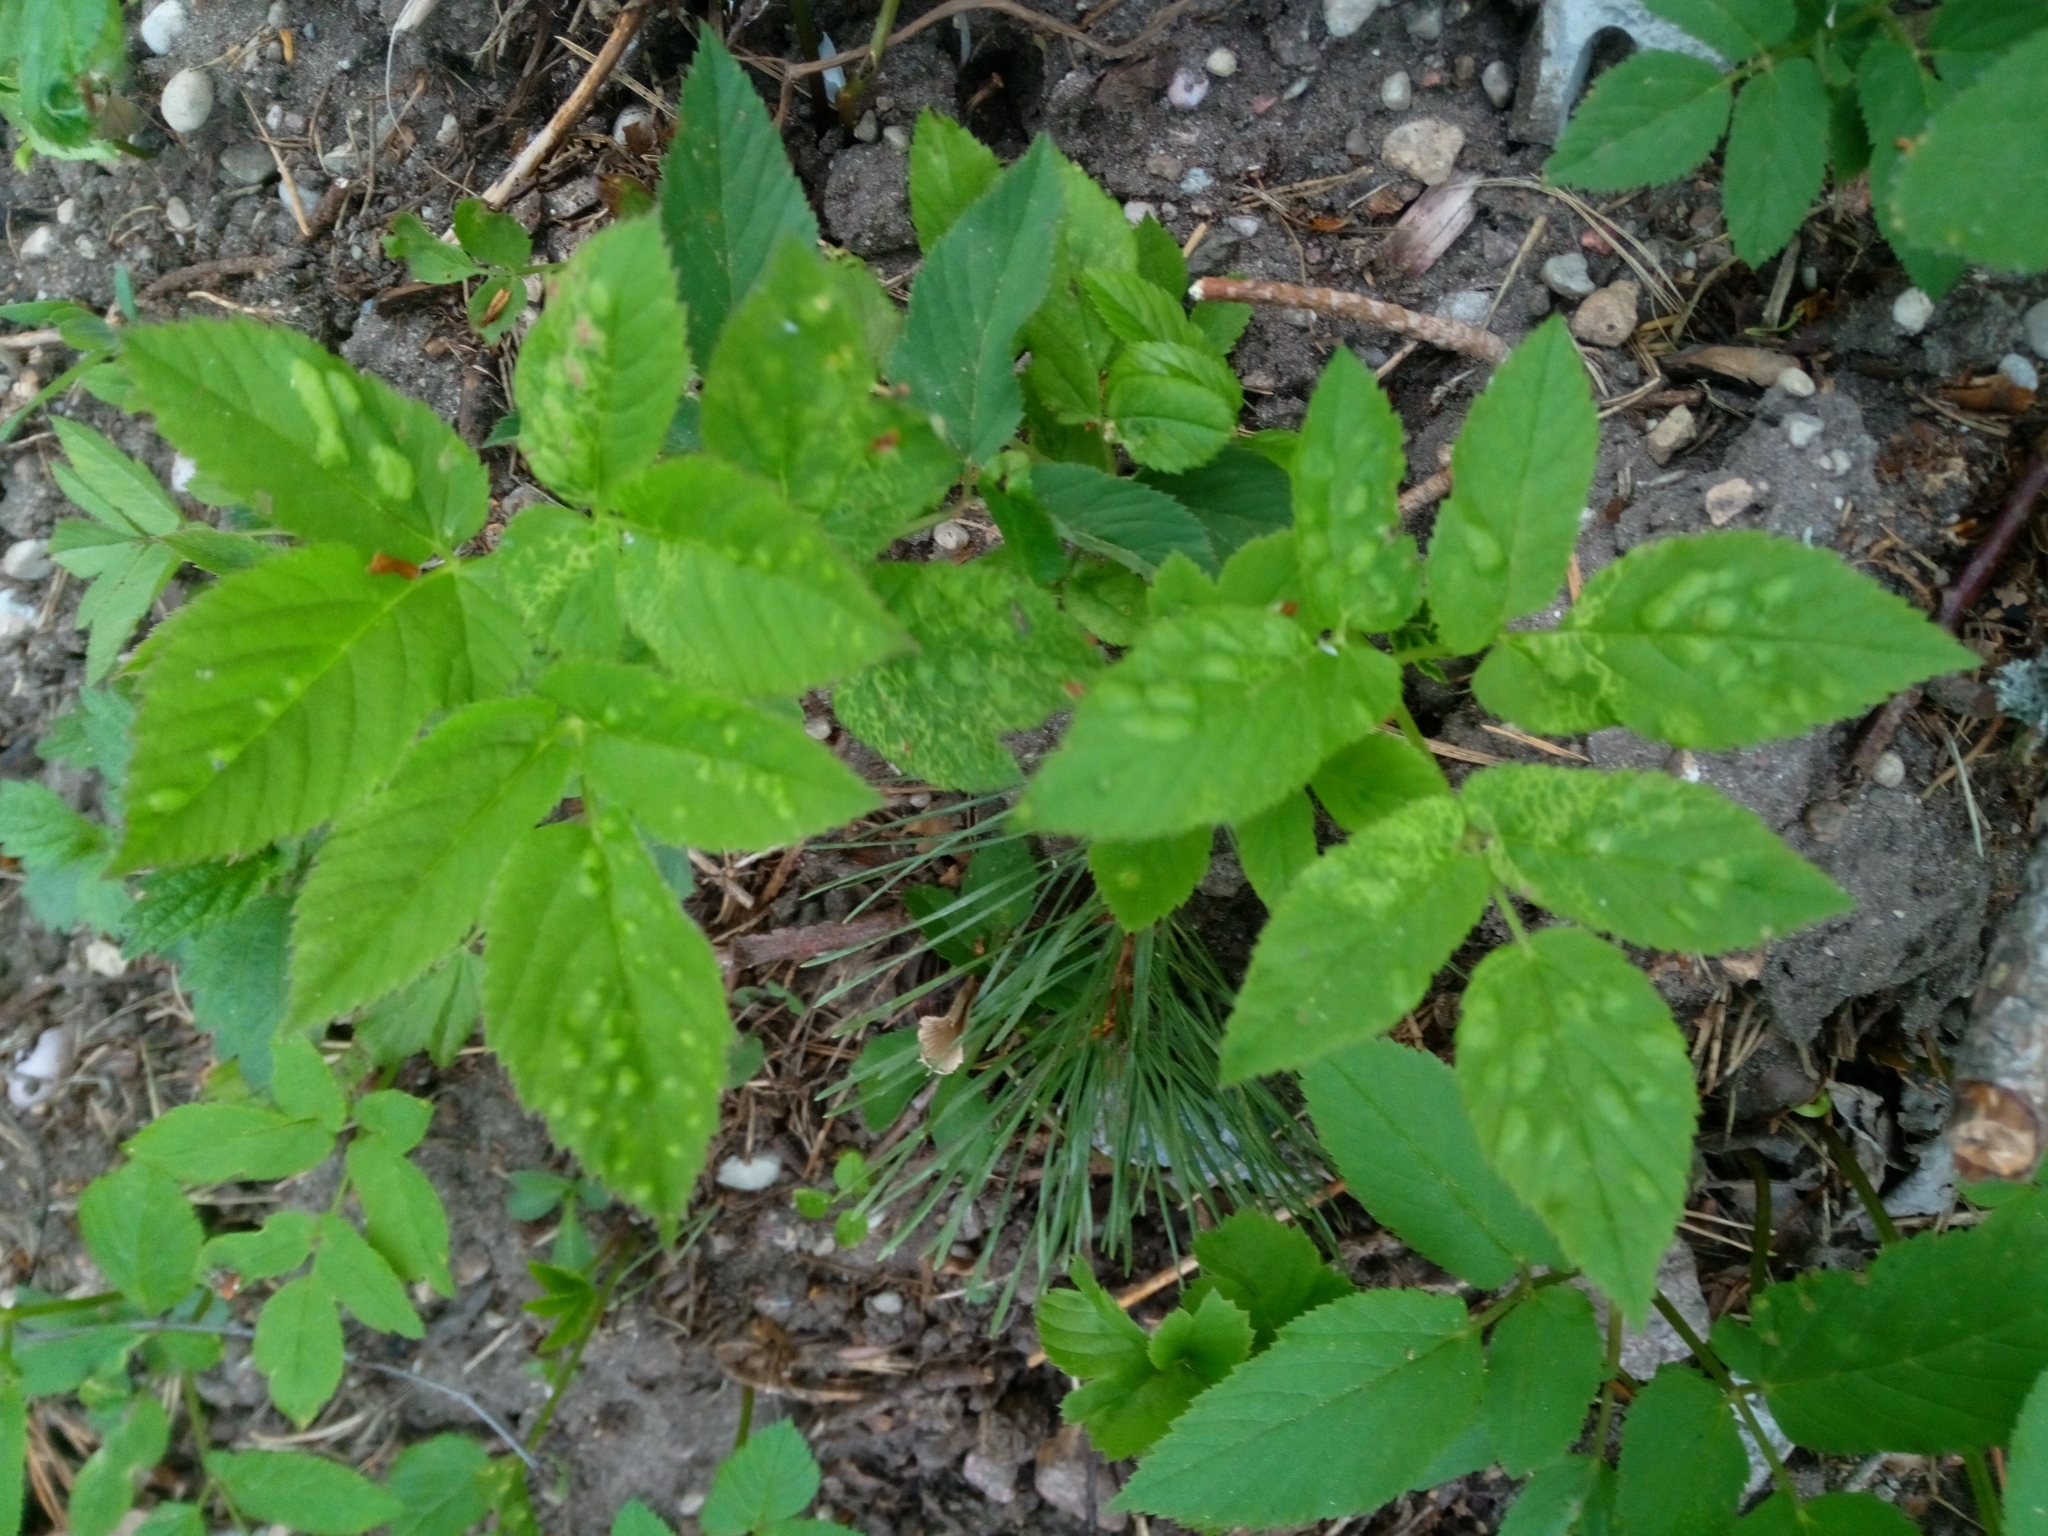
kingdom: Plantae
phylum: Tracheophyta
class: Magnoliopsida
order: Apiales
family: Apiaceae
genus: Aegopodium
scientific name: Aegopodium podagraria
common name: Ground-elder
